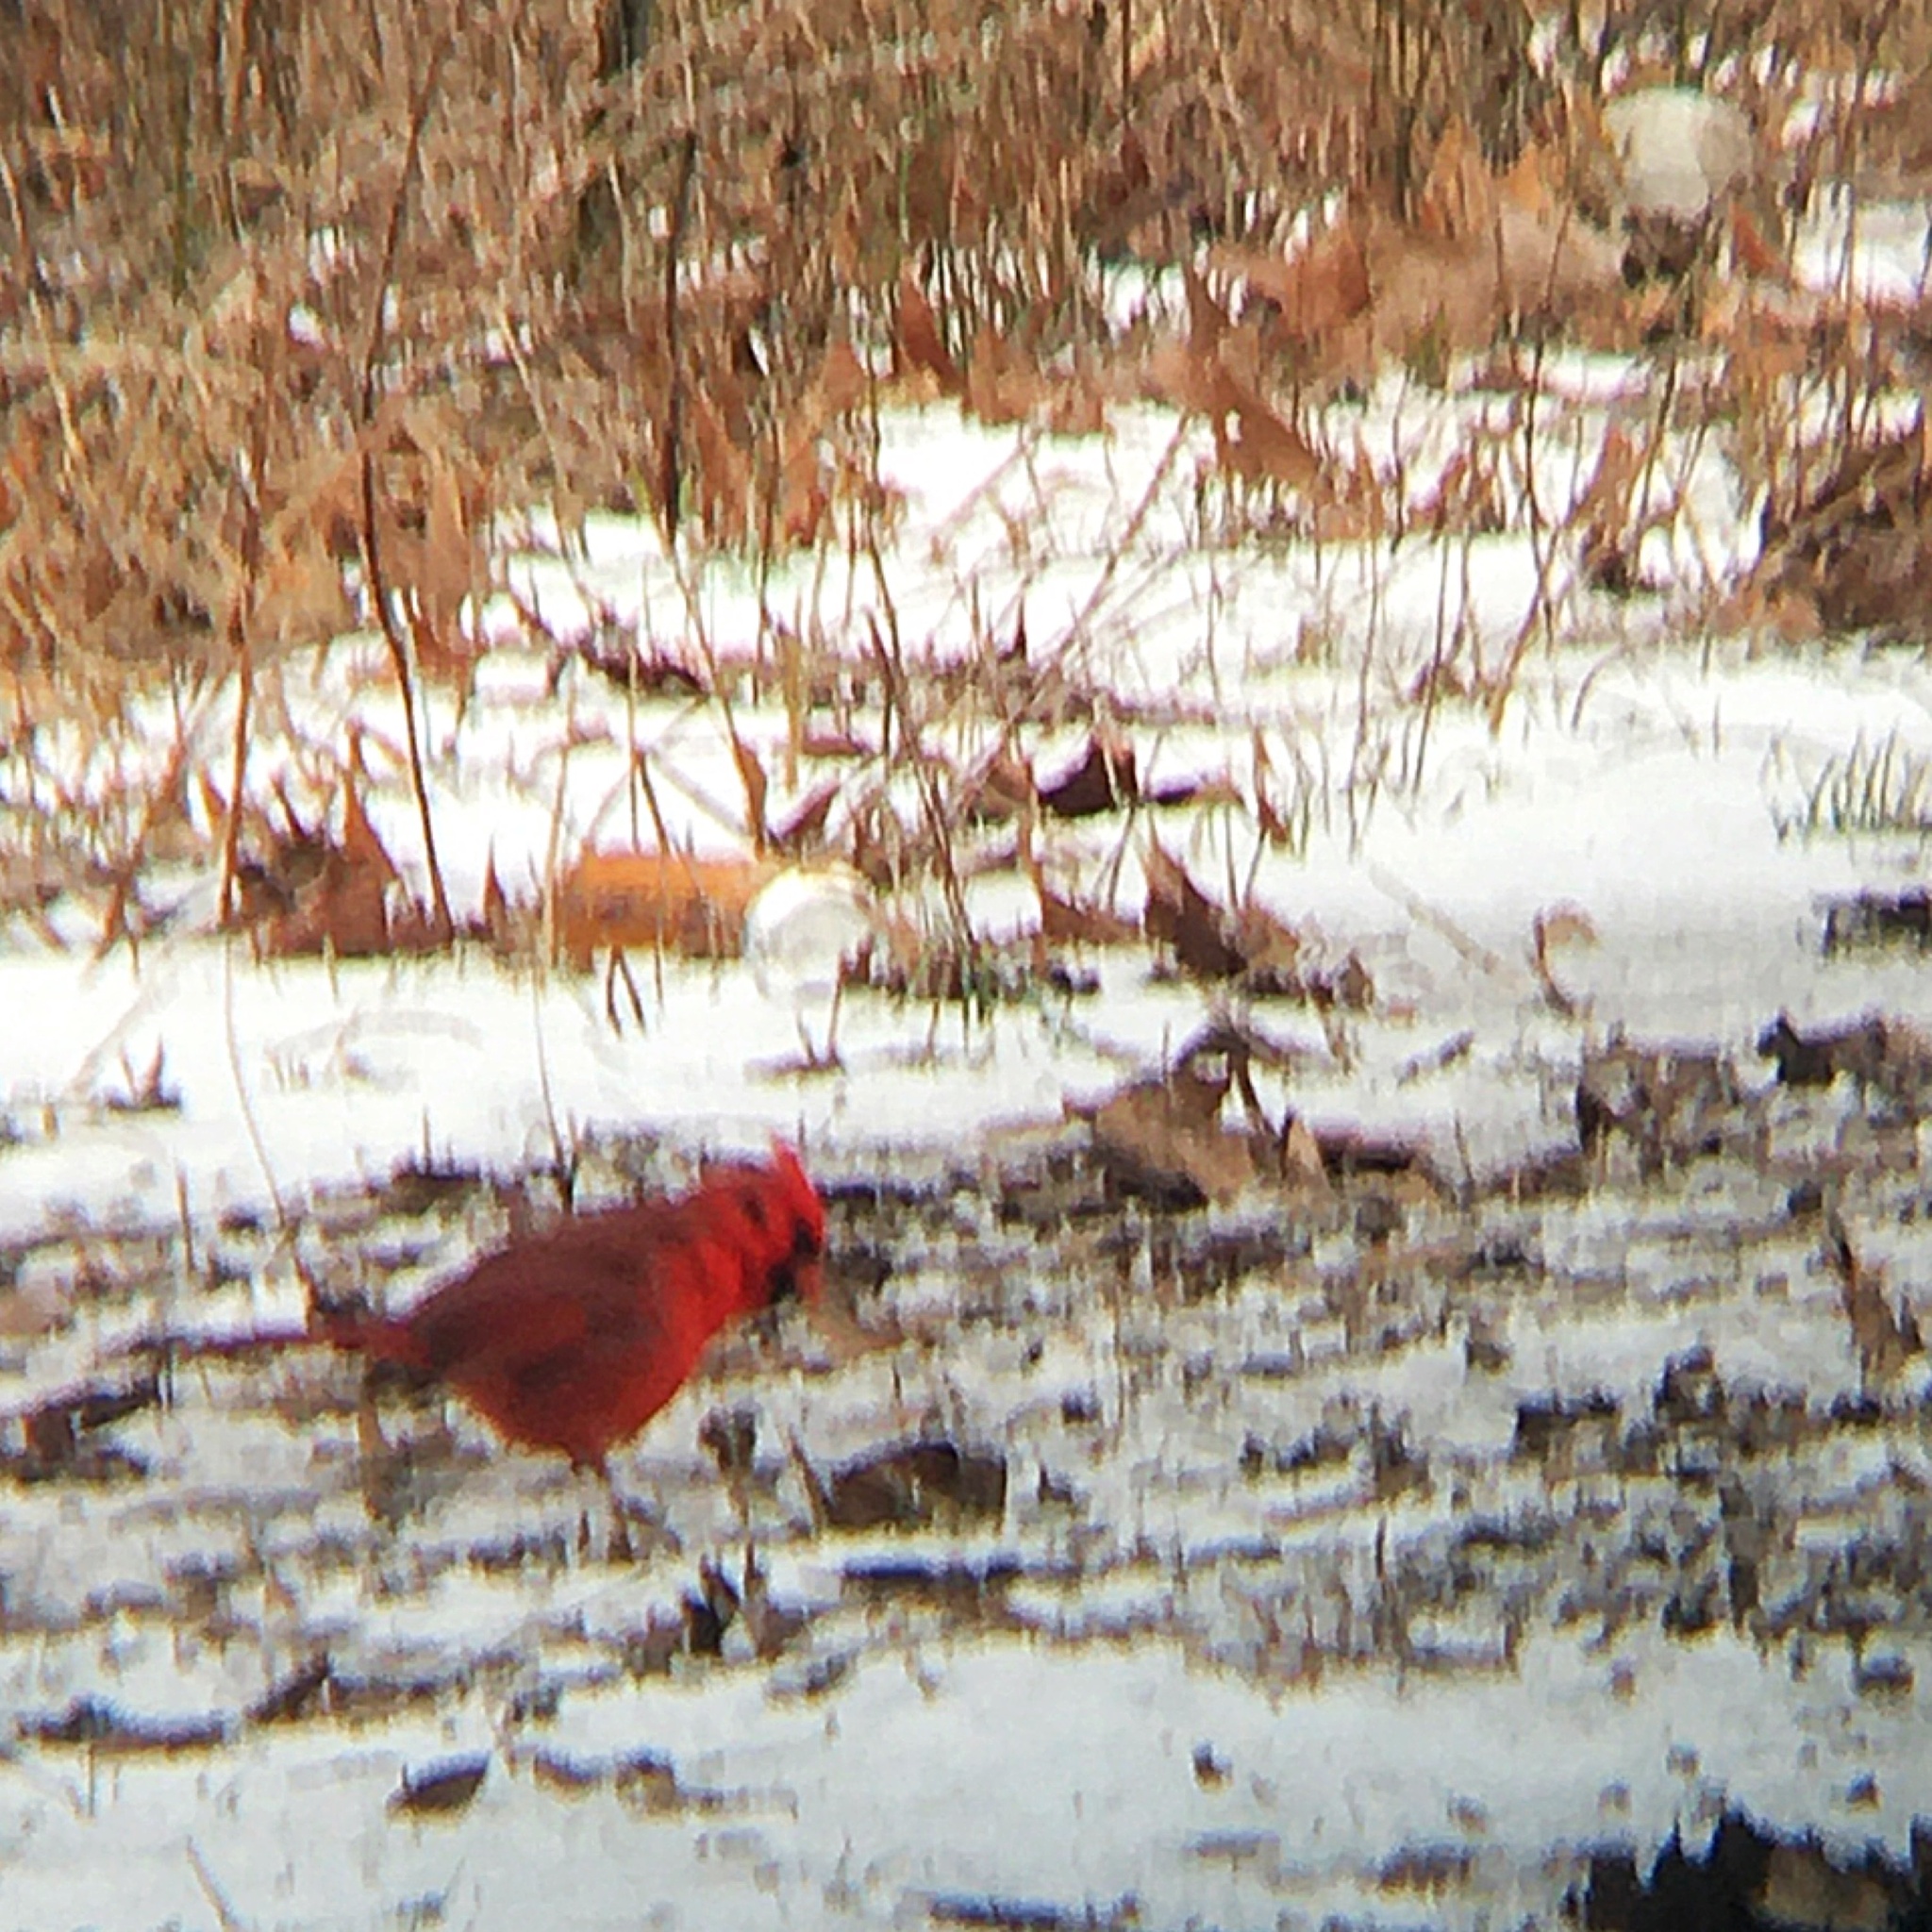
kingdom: Animalia
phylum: Chordata
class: Aves
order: Passeriformes
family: Cardinalidae
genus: Cardinalis
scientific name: Cardinalis cardinalis
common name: Northern cardinal
